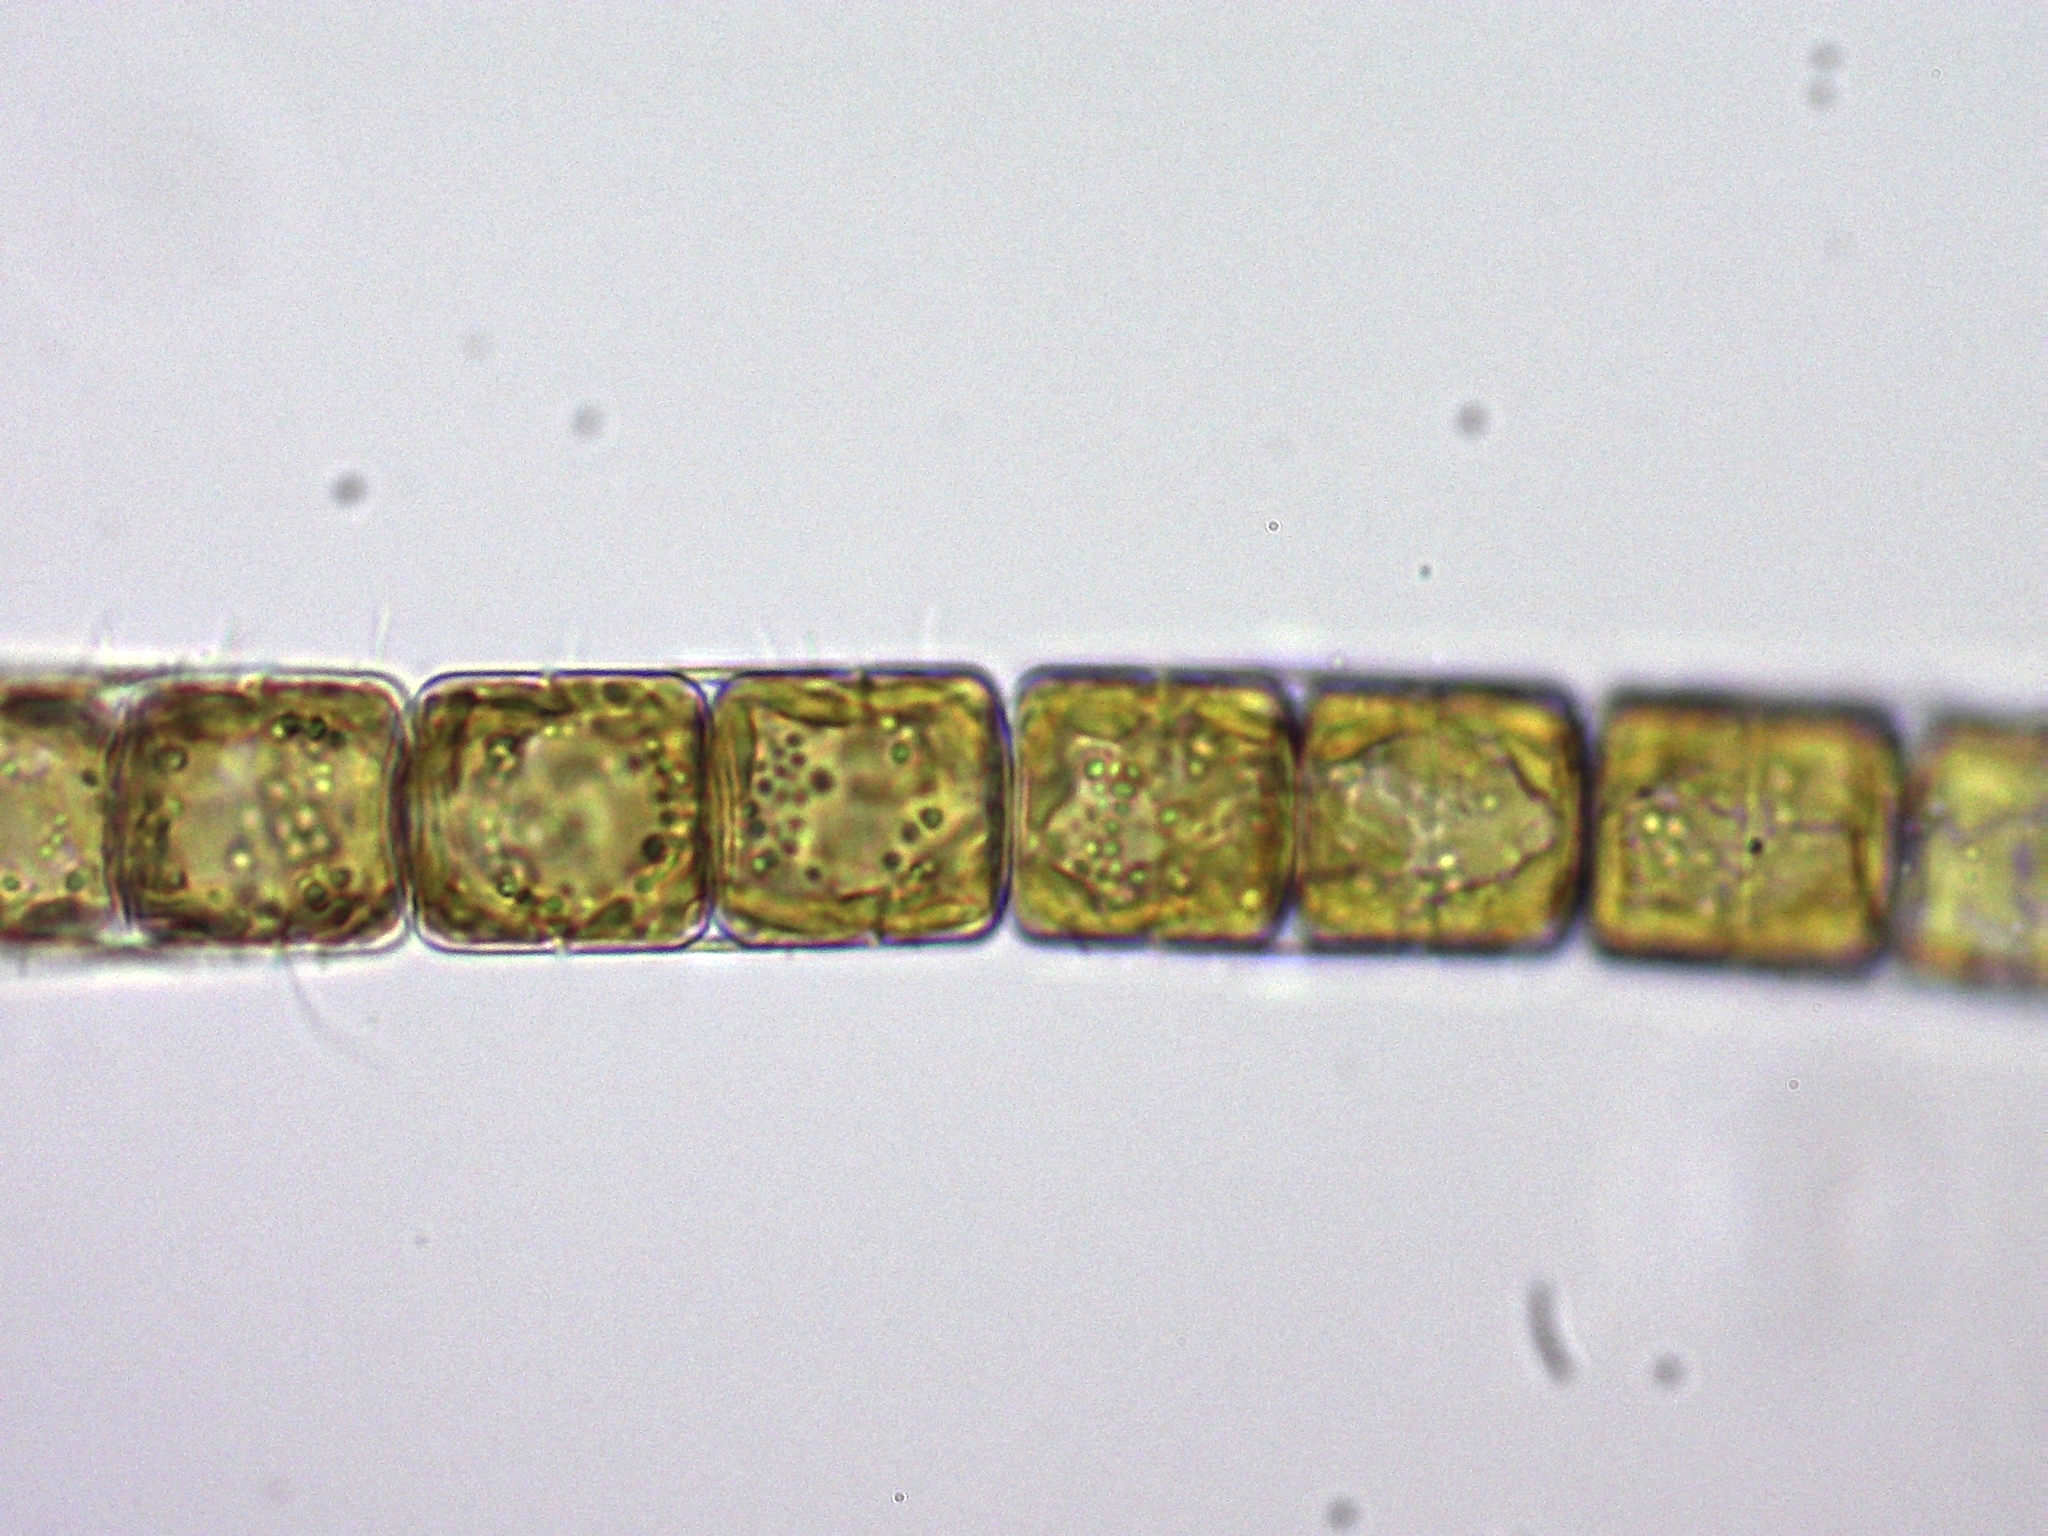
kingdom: Chromista
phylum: Ochrophyta
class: Bacillariophyceae
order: Melosirales
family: Melosiraceae
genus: Melosira
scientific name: Melosira varians
